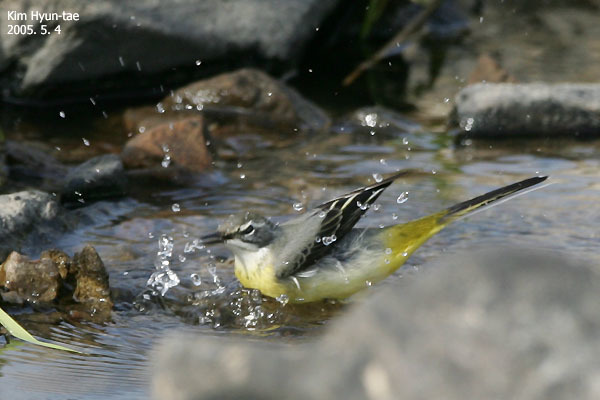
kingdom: Animalia
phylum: Chordata
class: Aves
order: Passeriformes
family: Motacillidae
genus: Motacilla
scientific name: Motacilla cinerea
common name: Grey wagtail
